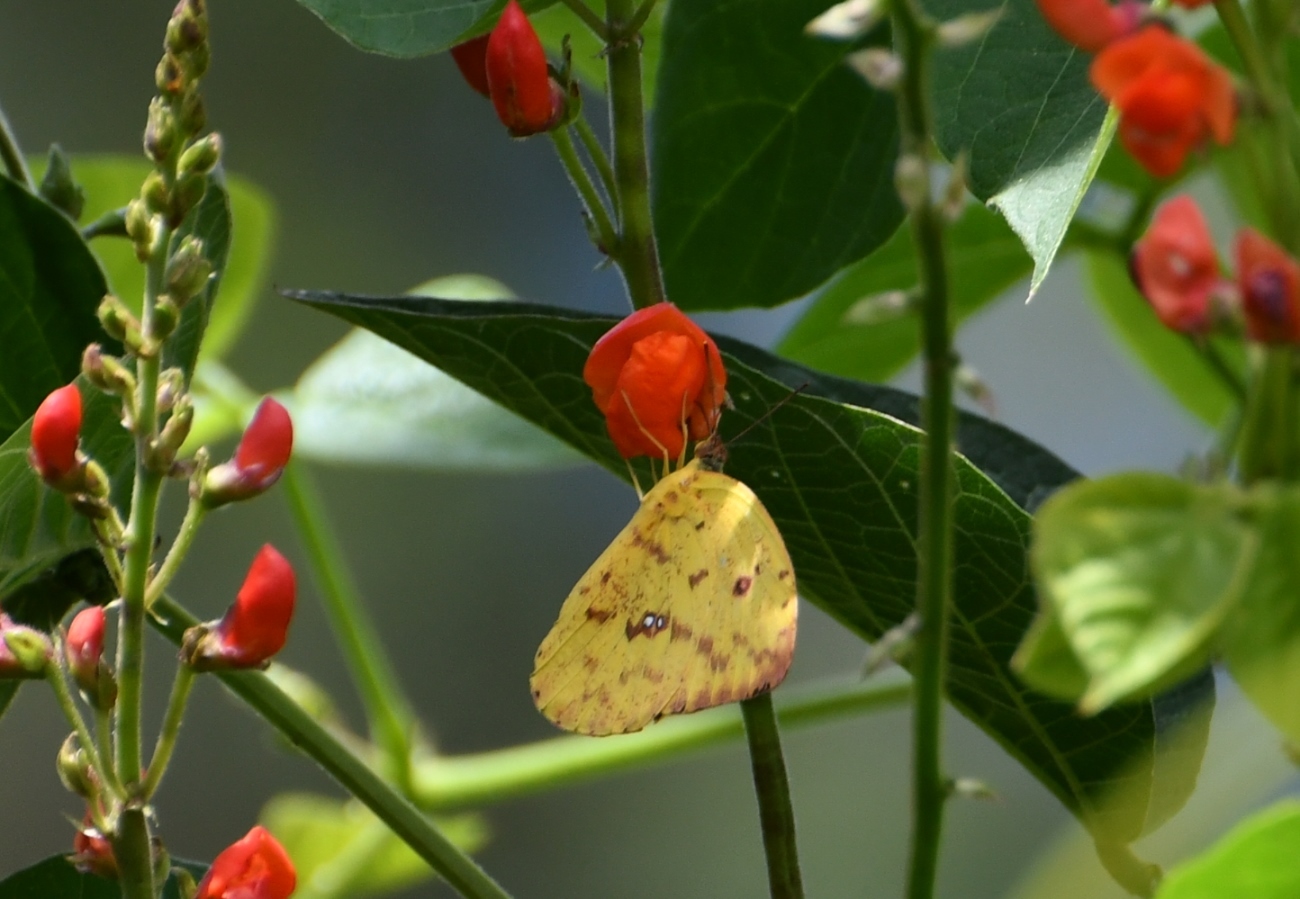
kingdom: Animalia
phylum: Arthropoda
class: Insecta
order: Lepidoptera
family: Pieridae
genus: Phoebis
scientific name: Phoebis argante
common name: Apricot sulphur
